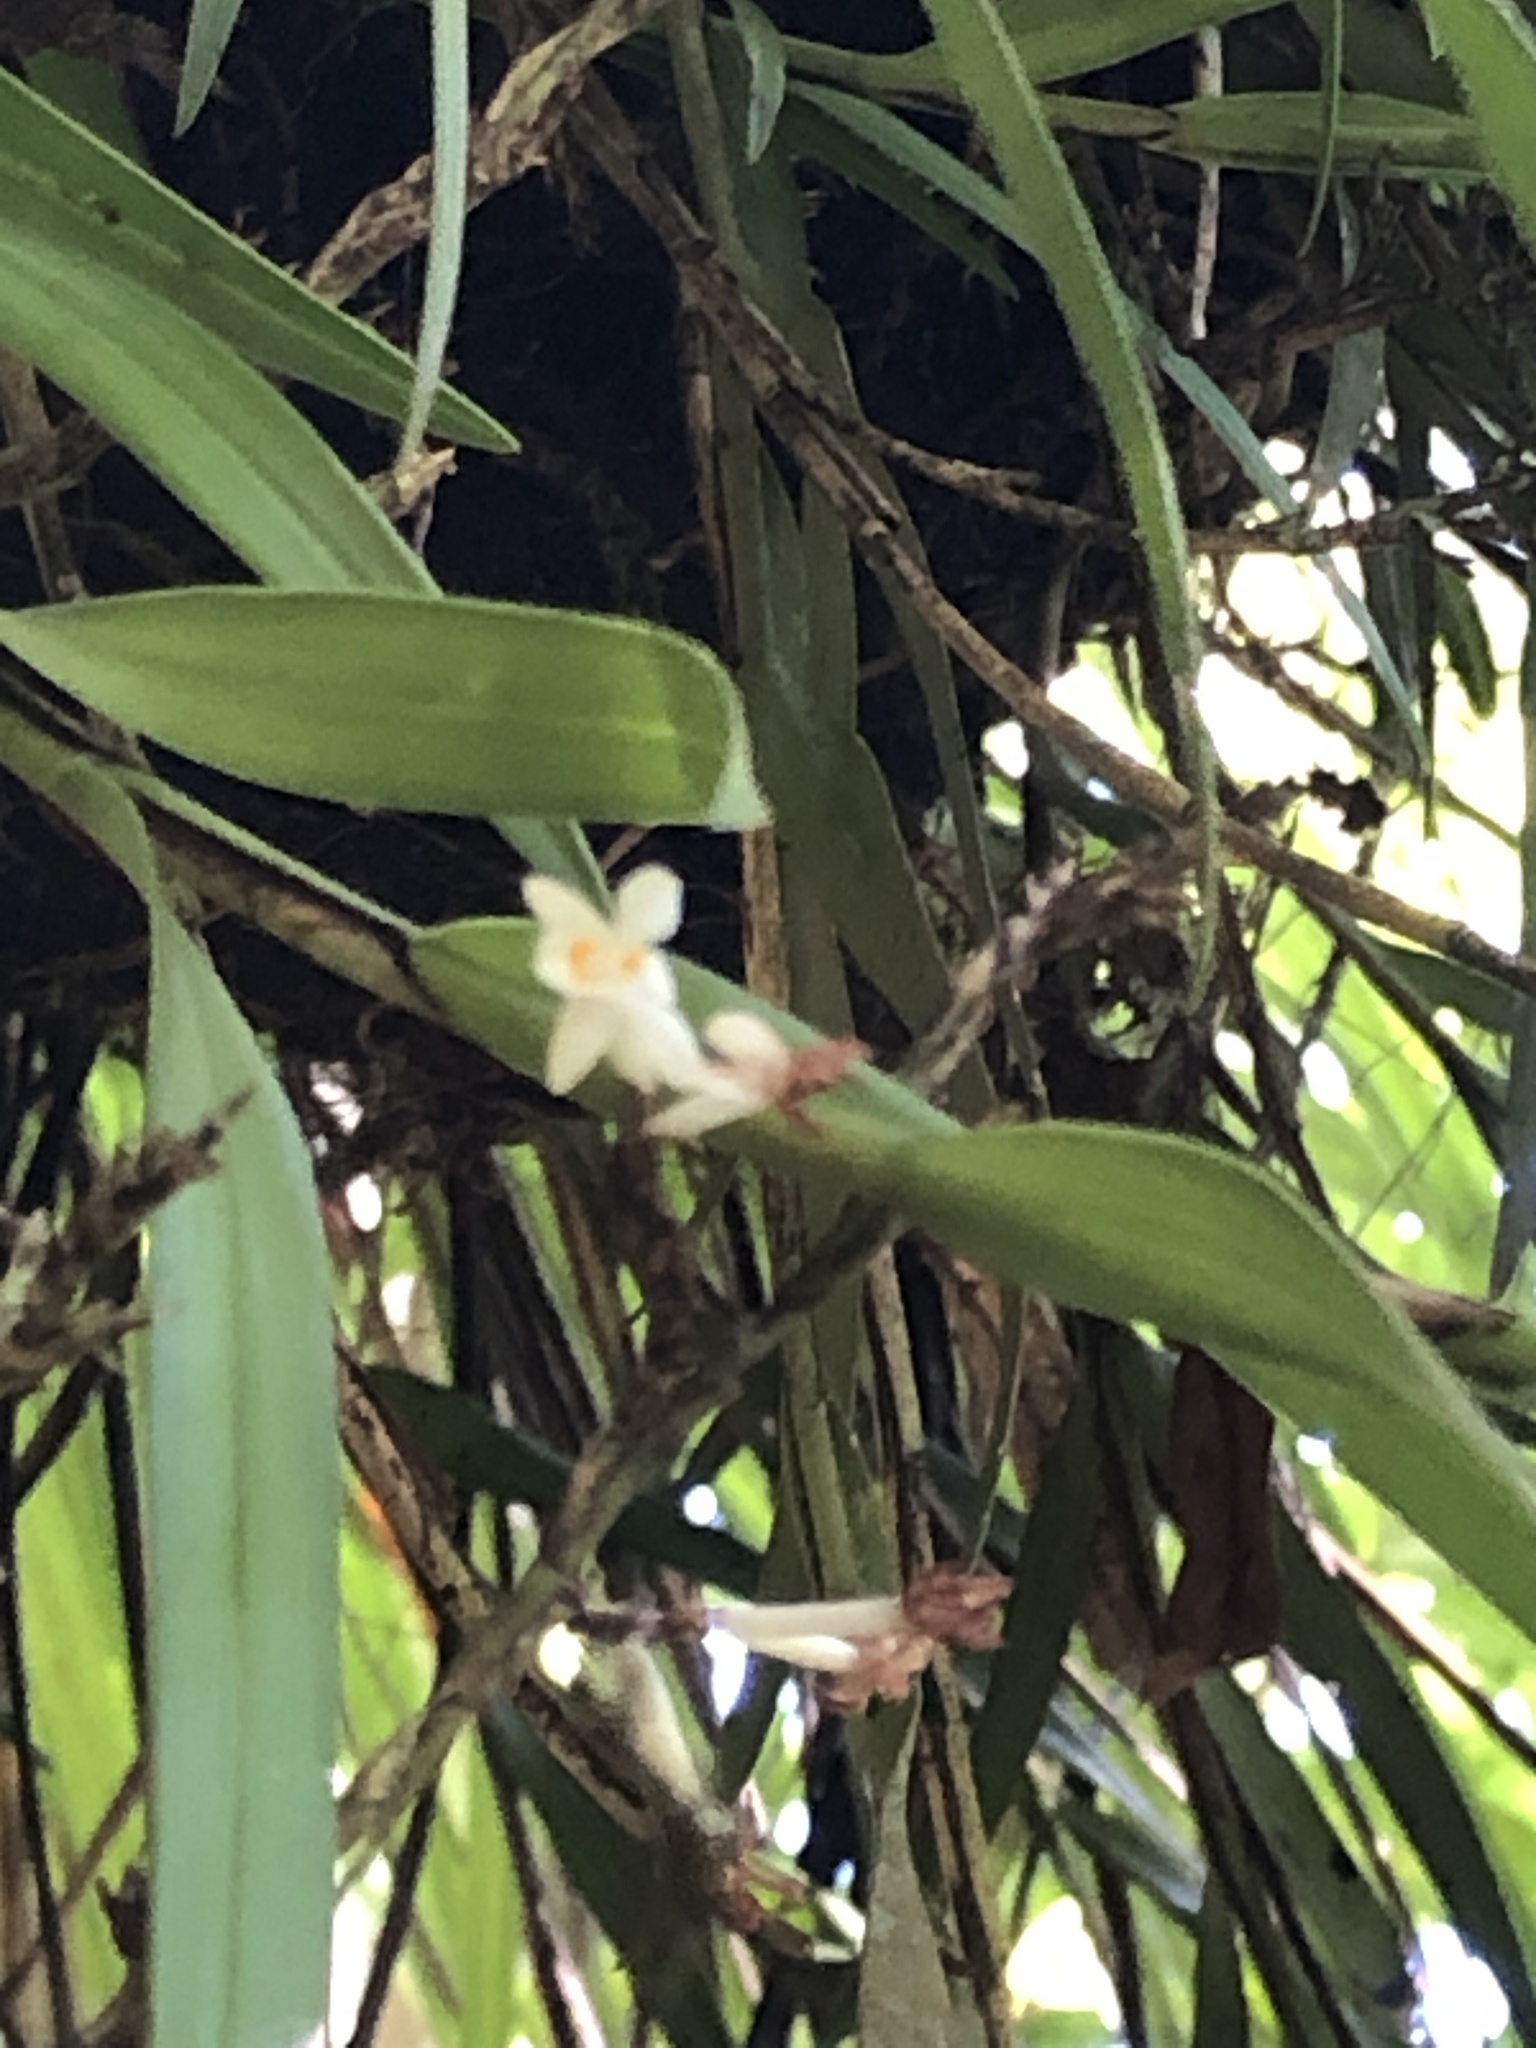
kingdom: Plantae
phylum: Tracheophyta
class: Liliopsida
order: Asparagales
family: Orchidaceae
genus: Earina
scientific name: Earina autumnalis
